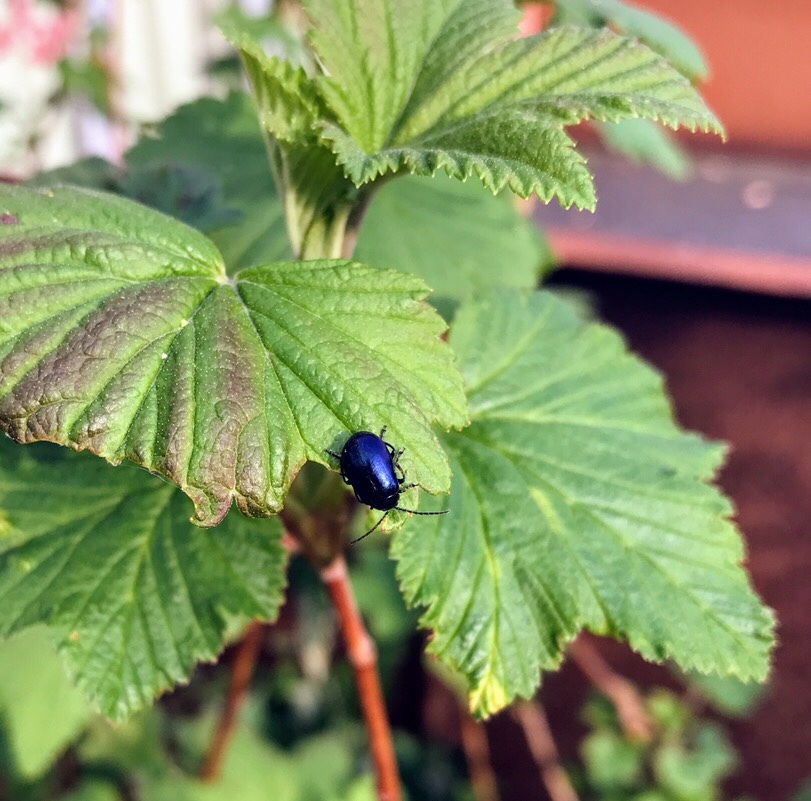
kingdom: Animalia
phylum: Arthropoda
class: Insecta
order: Coleoptera
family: Chrysomelidae
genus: Agelastica
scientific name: Agelastica alni
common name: Alder leaf beetle
